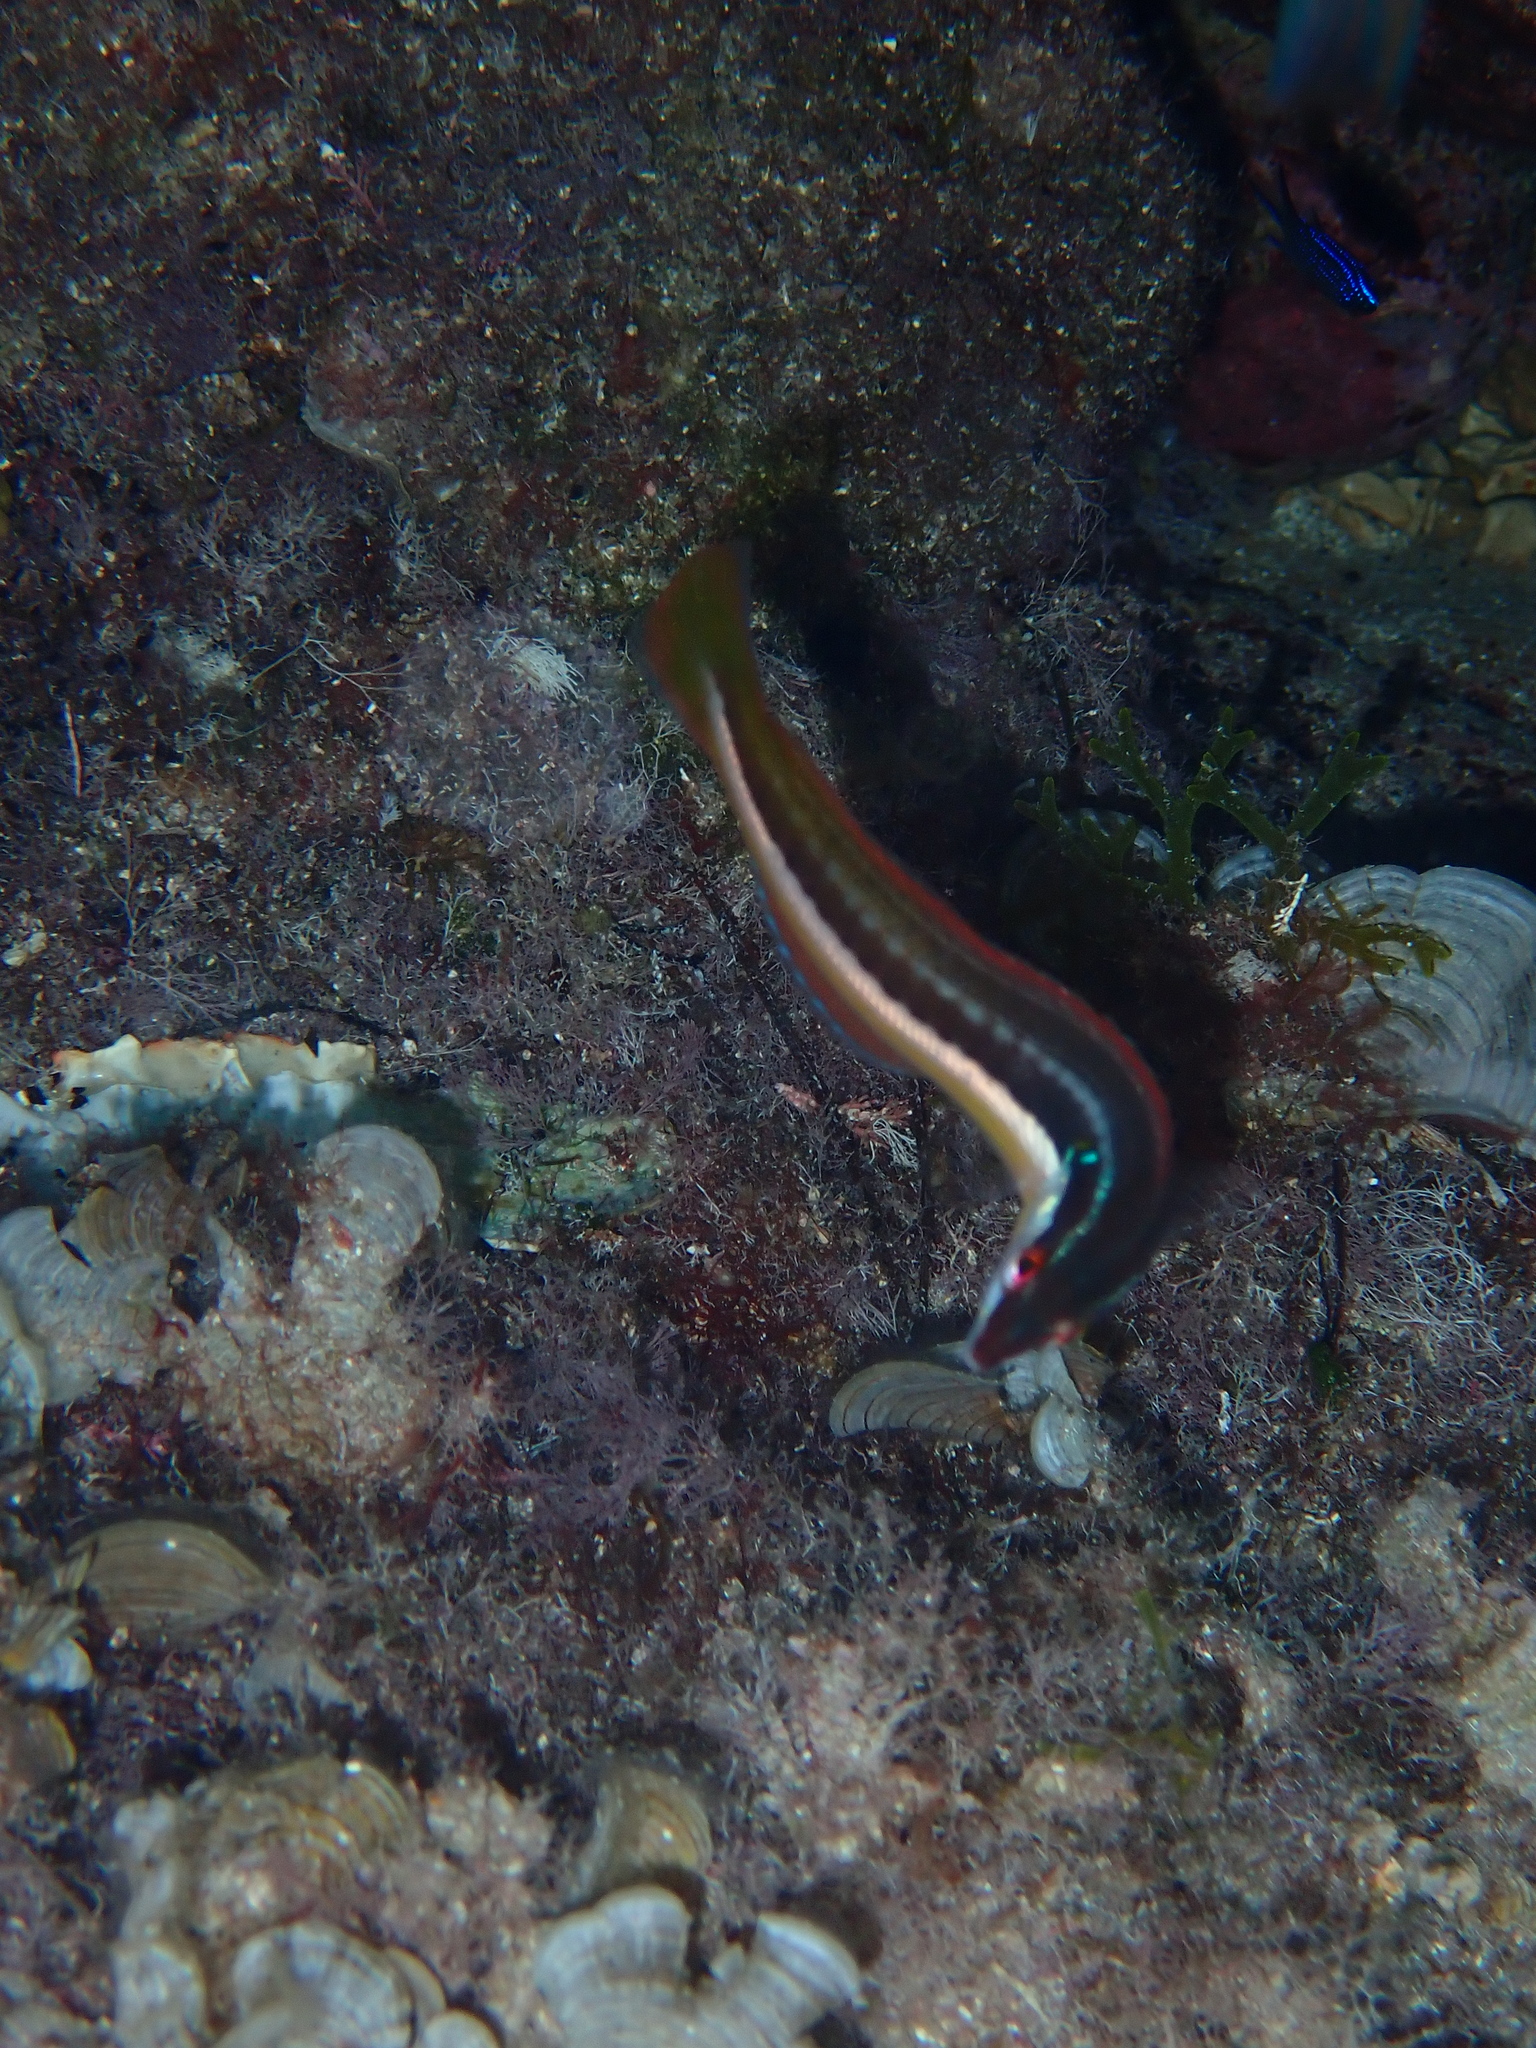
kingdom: Animalia
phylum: Chordata
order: Perciformes
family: Labridae
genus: Coris
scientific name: Coris julis
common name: Rainbow wrasse
